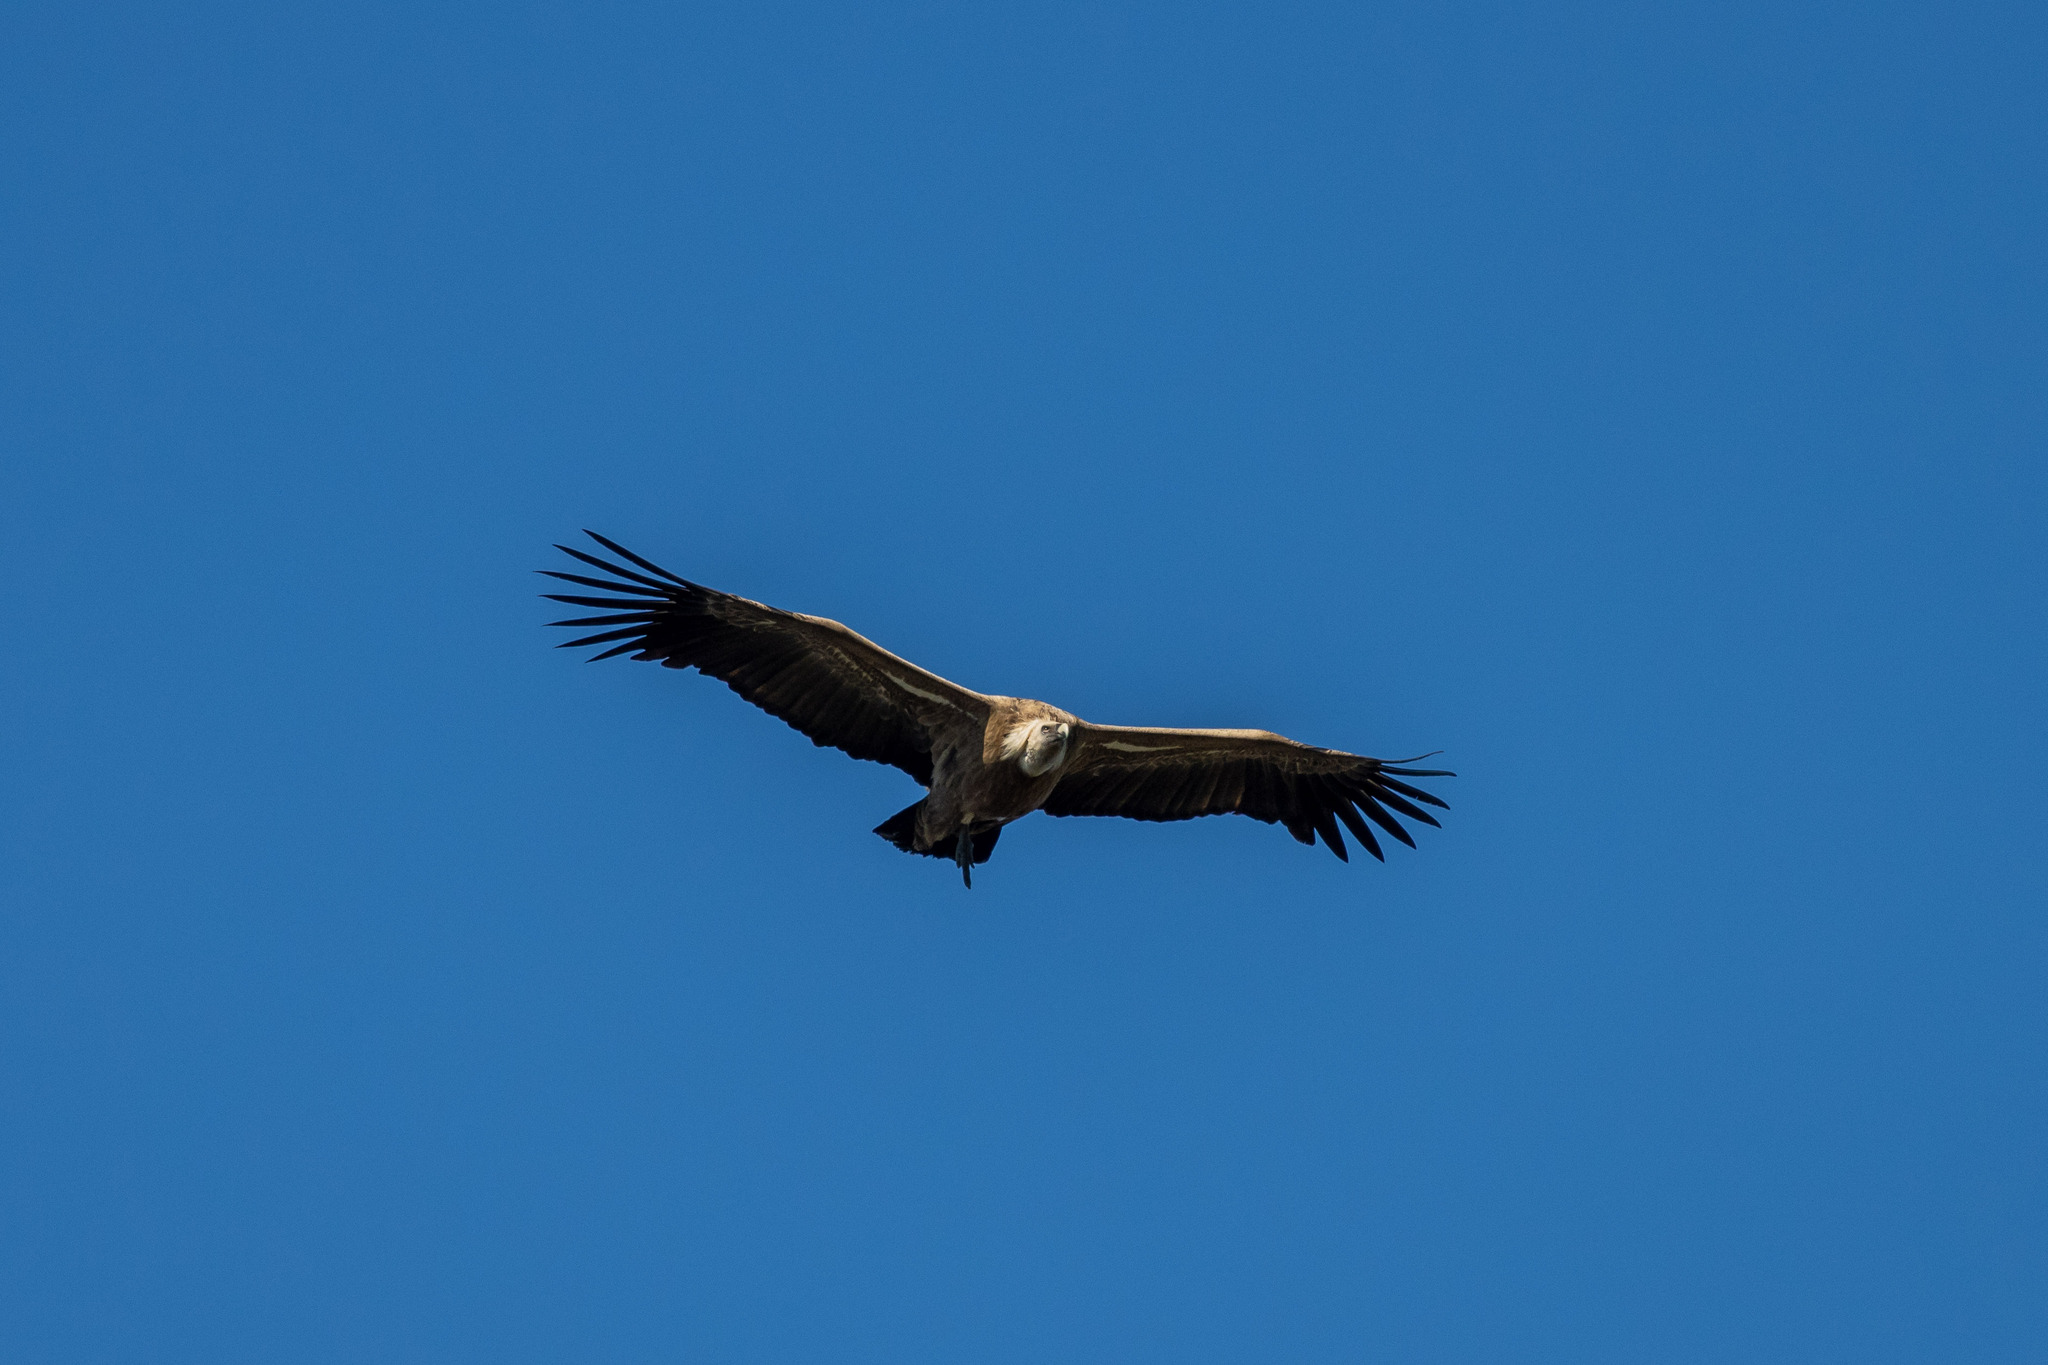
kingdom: Animalia
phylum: Chordata
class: Aves
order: Accipitriformes
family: Accipitridae
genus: Gyps
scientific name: Gyps fulvus
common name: Griffon vulture
